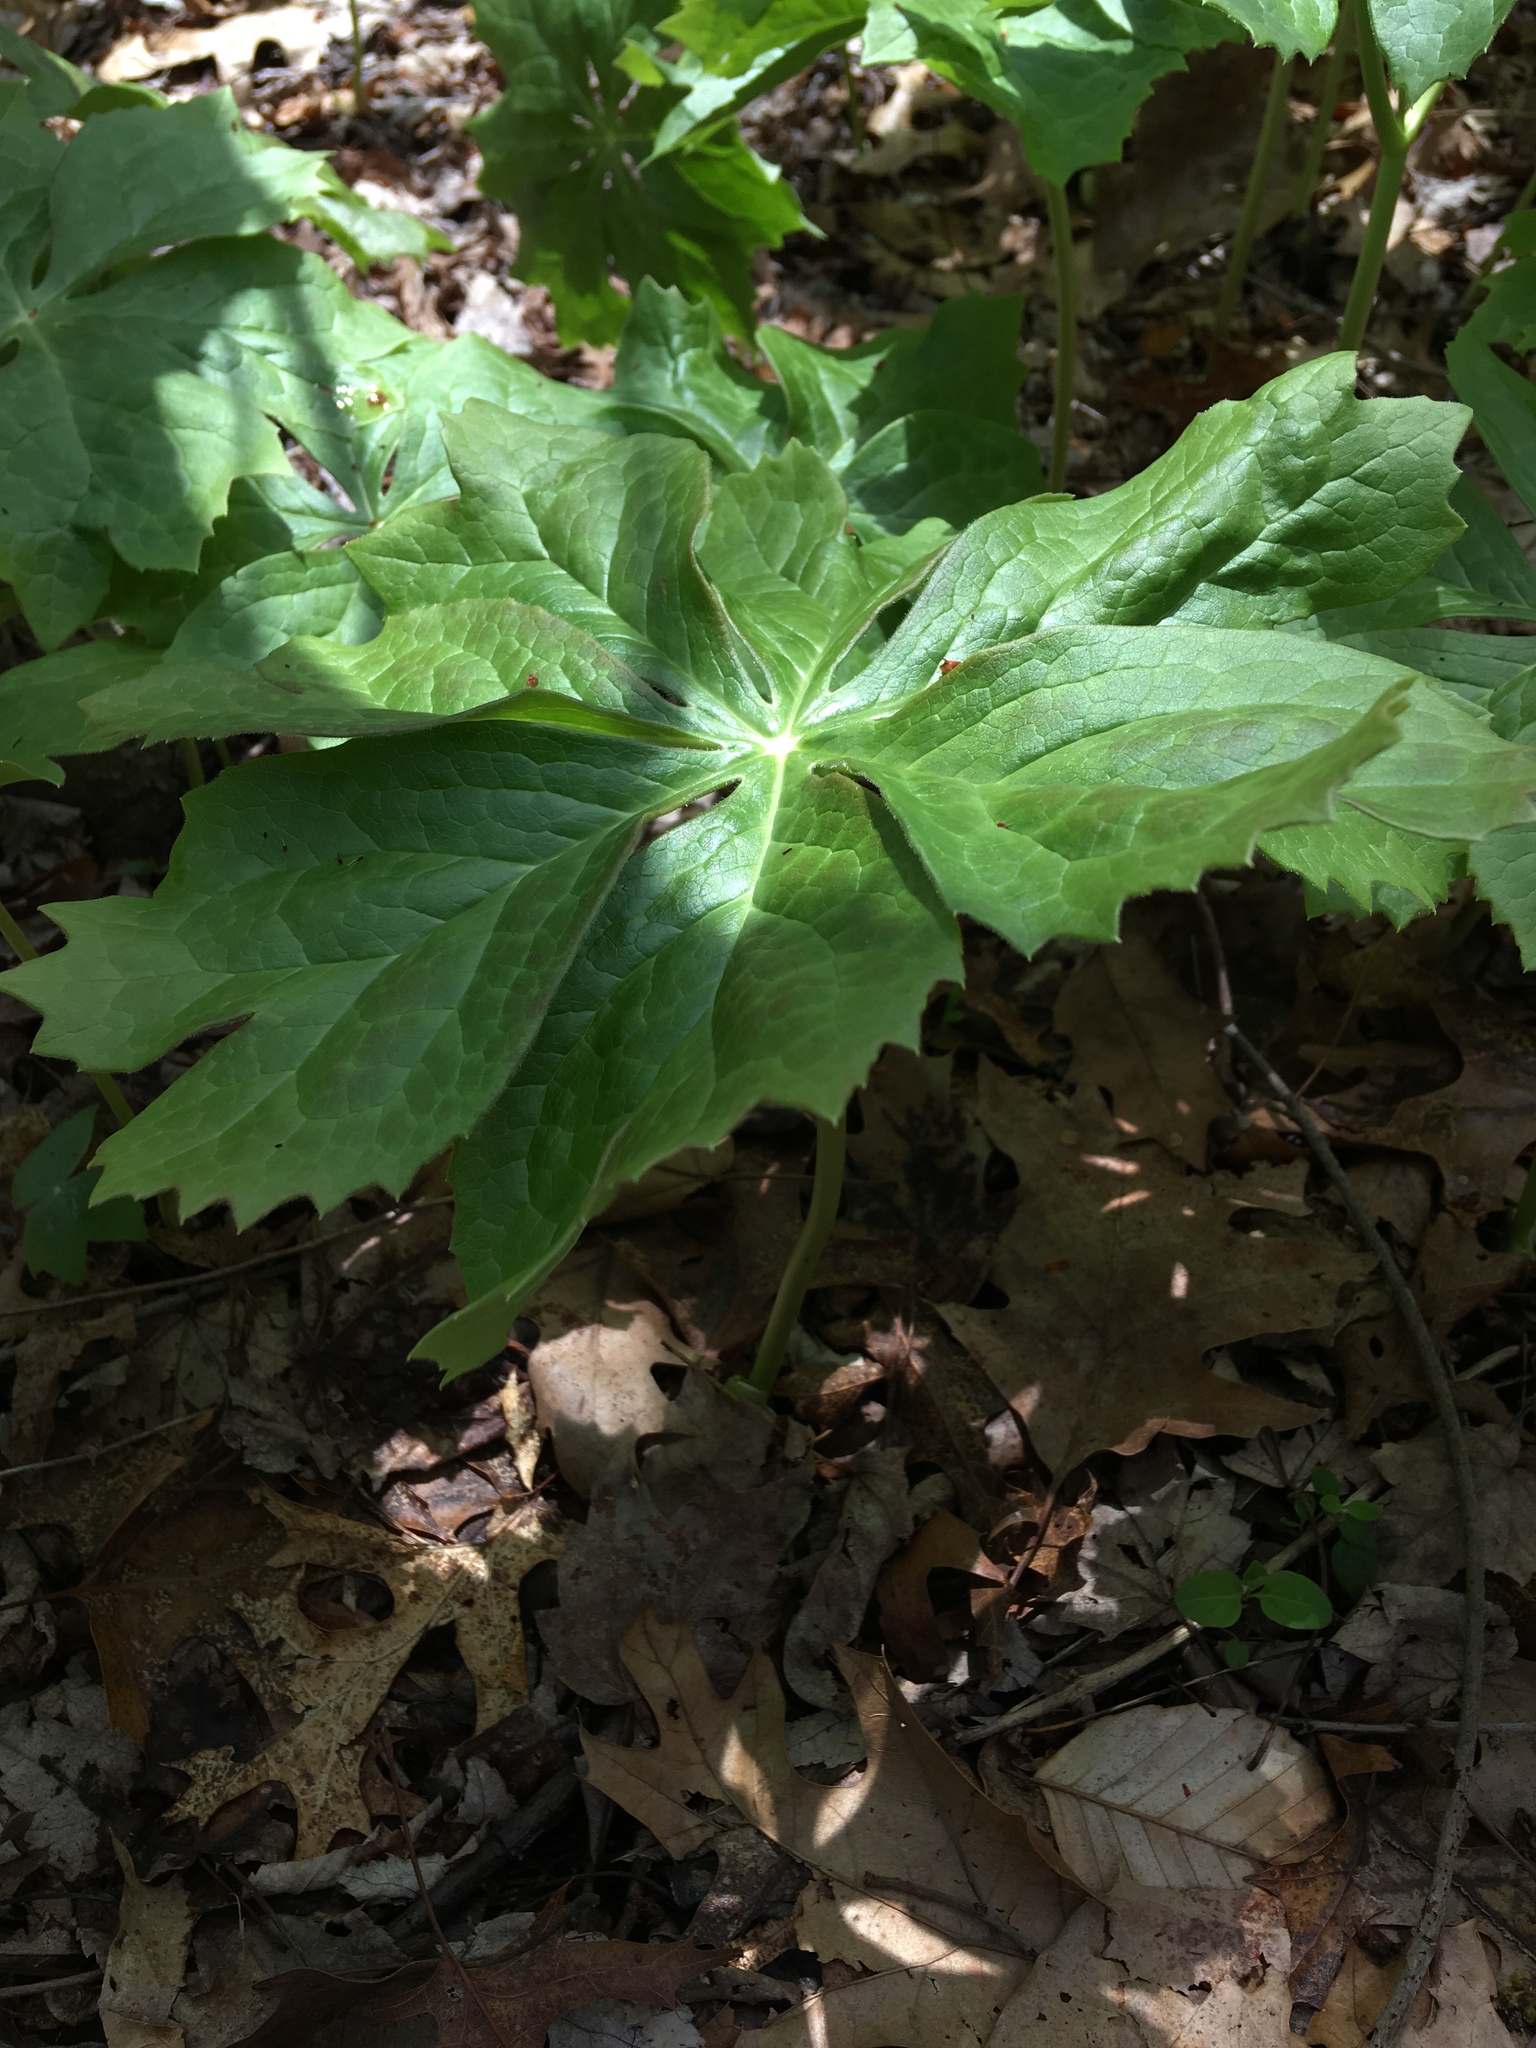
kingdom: Plantae
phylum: Tracheophyta
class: Magnoliopsida
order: Ranunculales
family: Berberidaceae
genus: Podophyllum
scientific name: Podophyllum peltatum
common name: Wild mandrake
